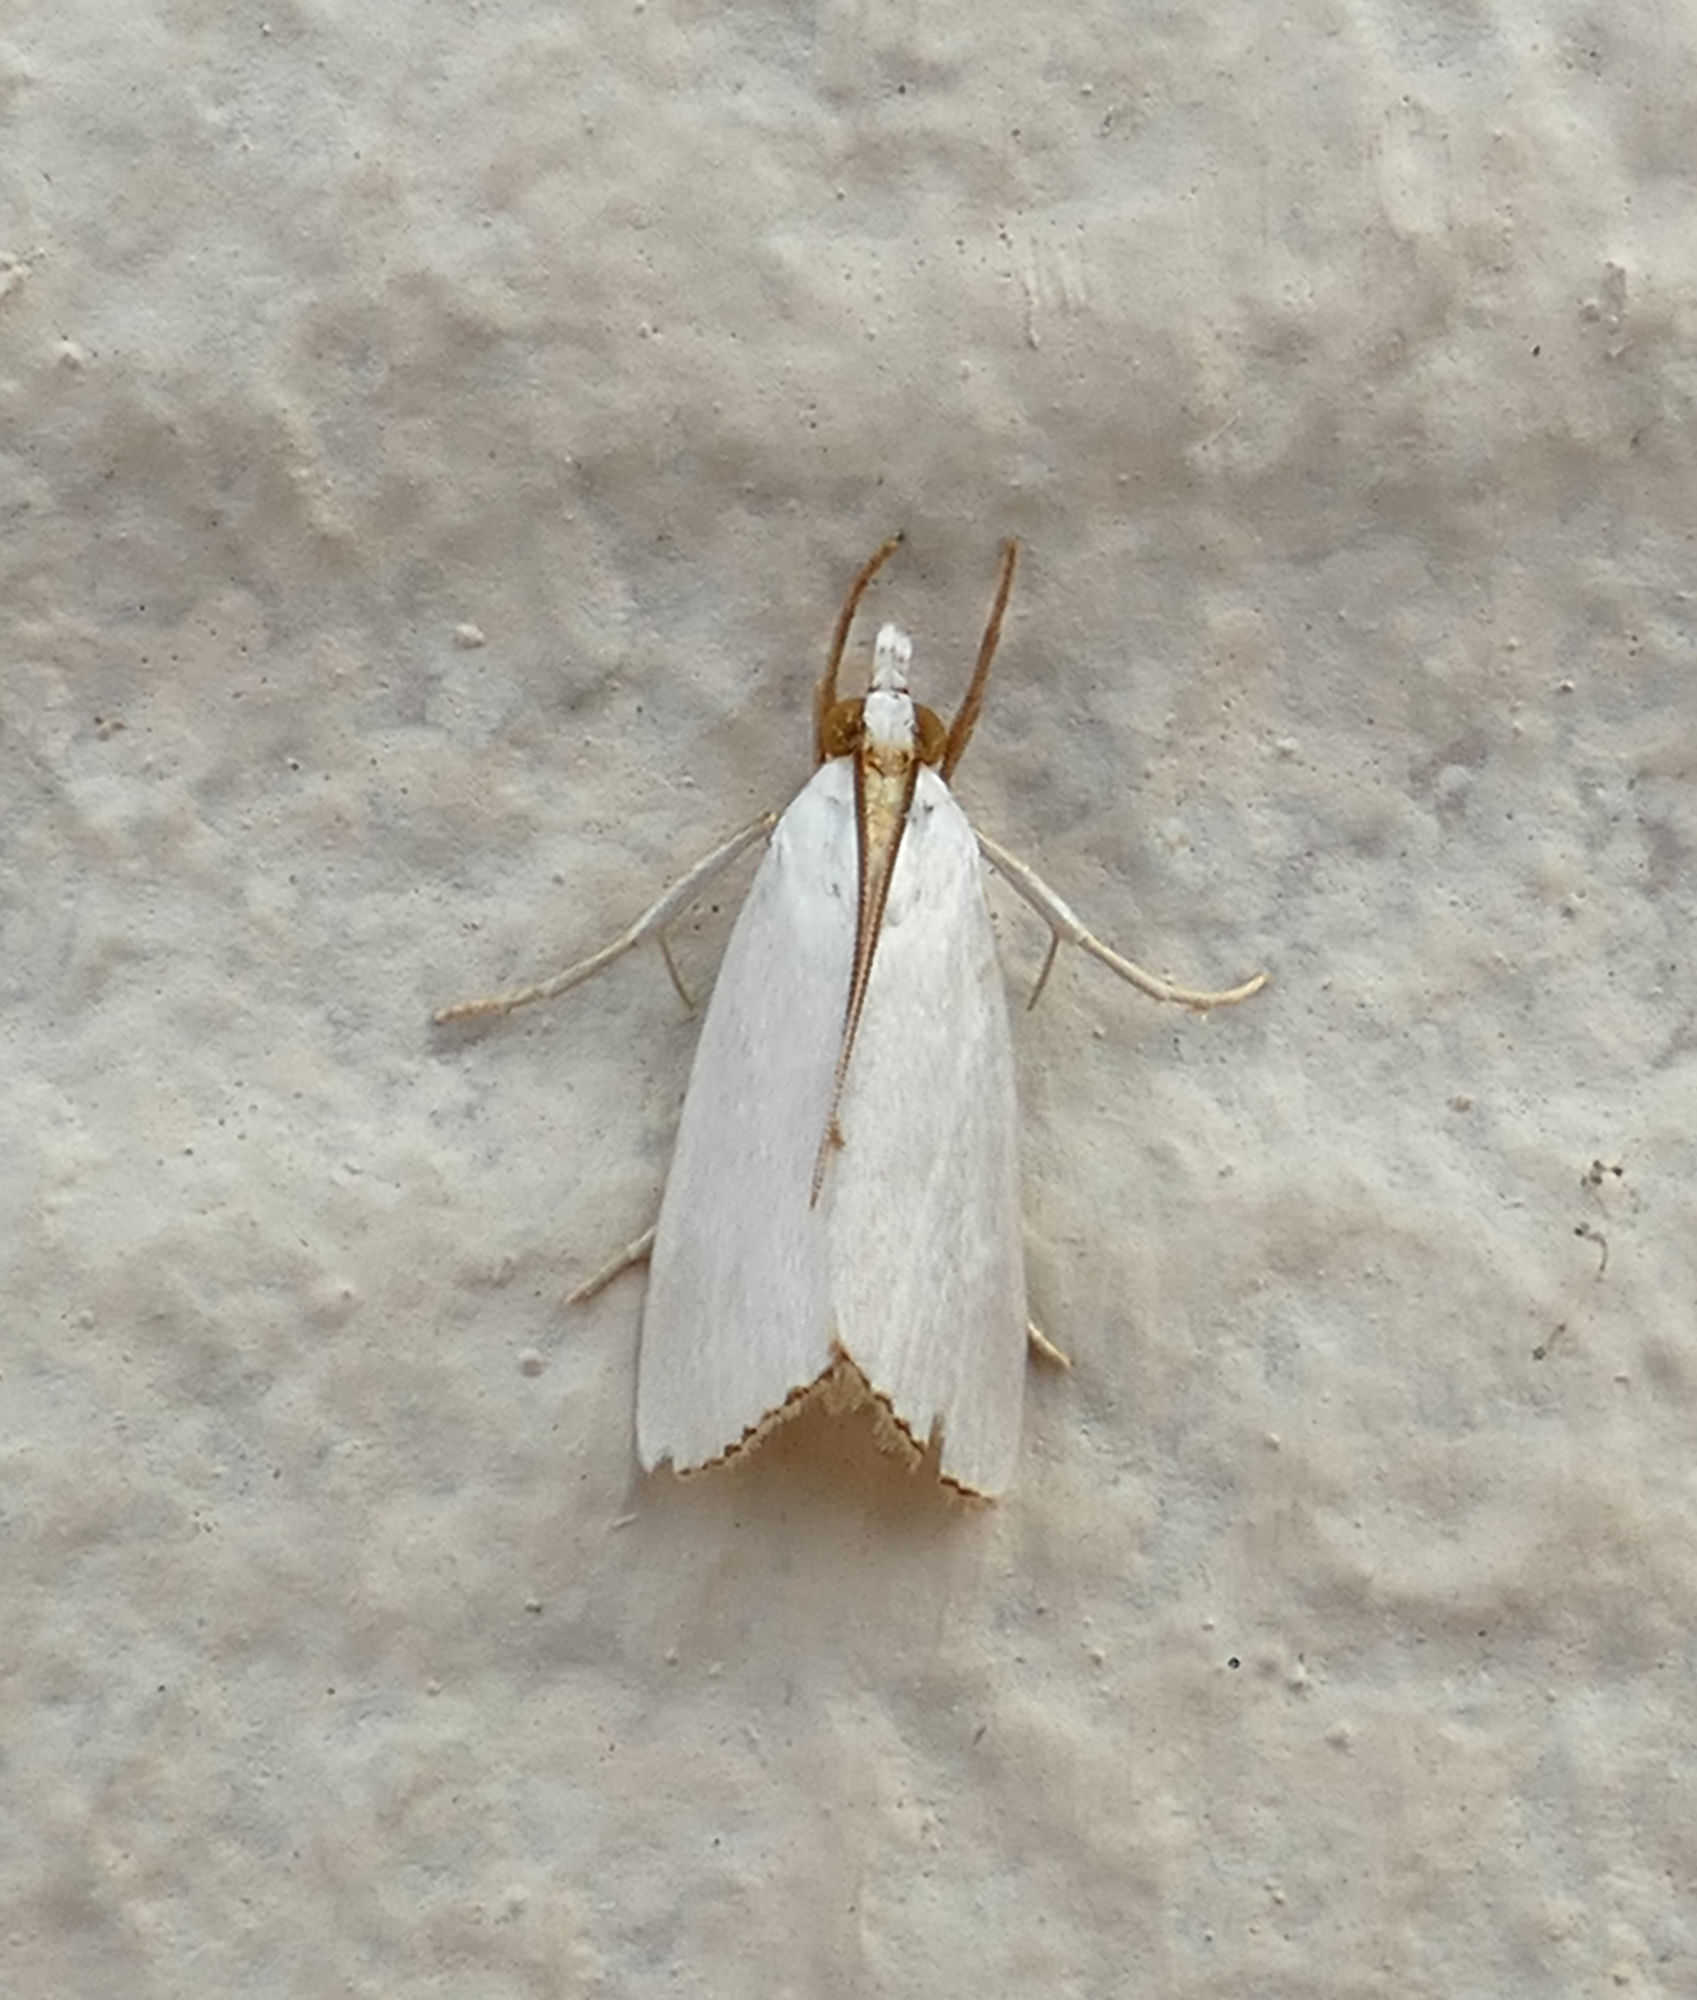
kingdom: Animalia
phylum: Arthropoda
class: Insecta
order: Lepidoptera
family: Crambidae
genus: Argyria
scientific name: Argyria nivalis
